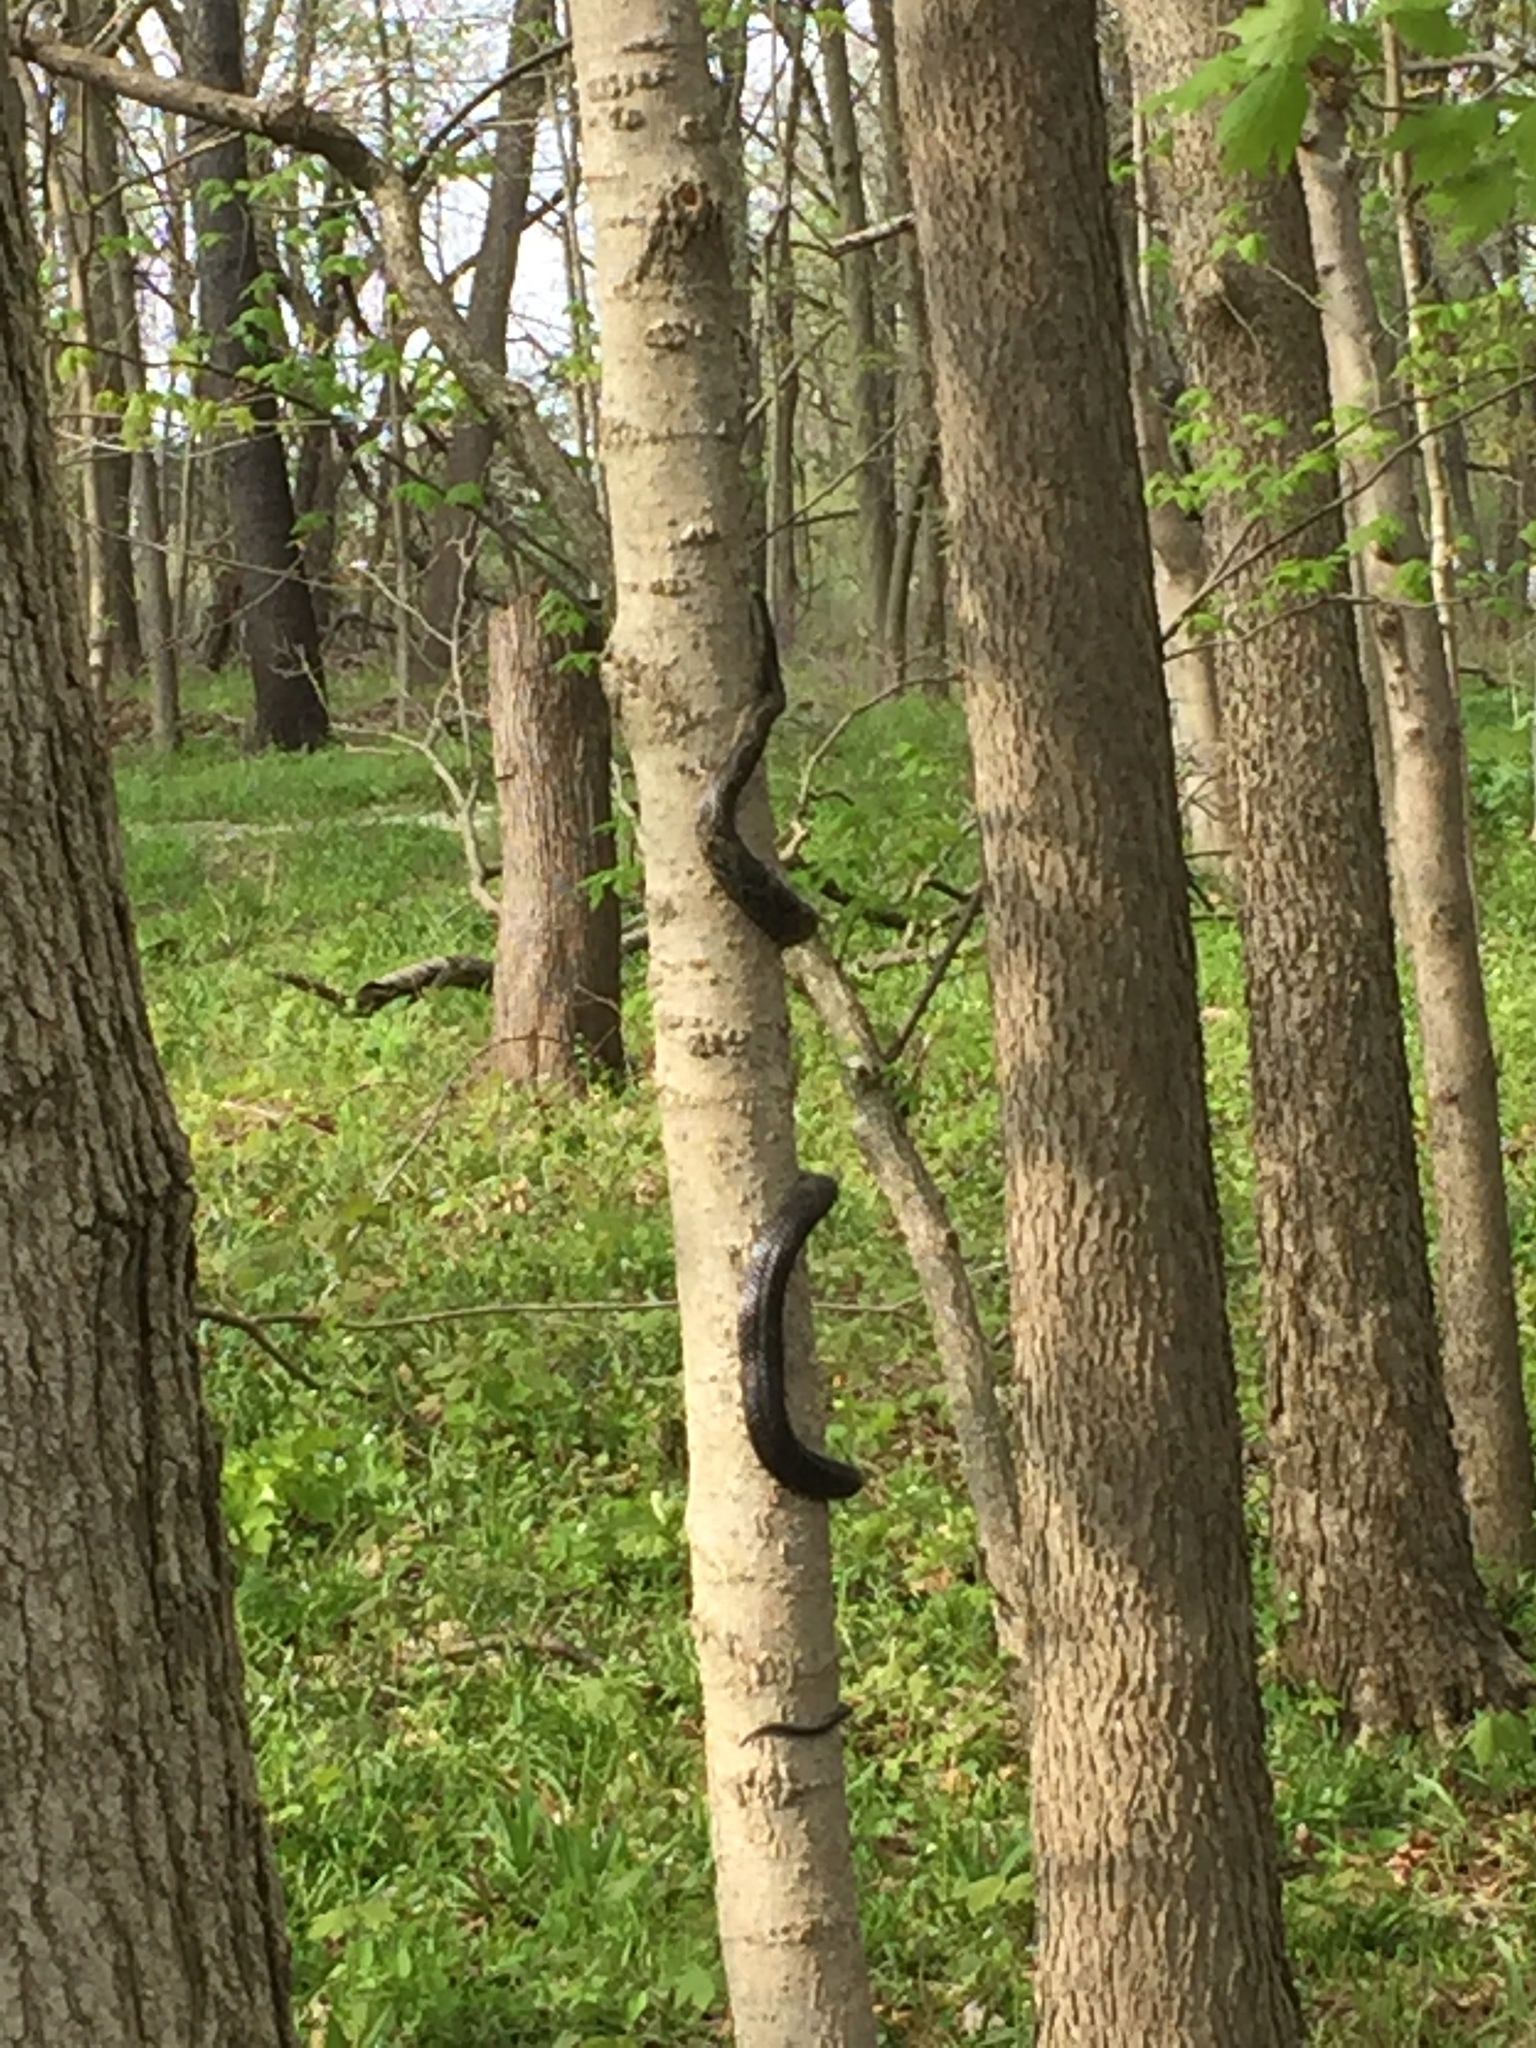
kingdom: Animalia
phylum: Chordata
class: Squamata
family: Colubridae
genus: Pantherophis
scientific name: Pantherophis spiloides
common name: Gray rat snake
